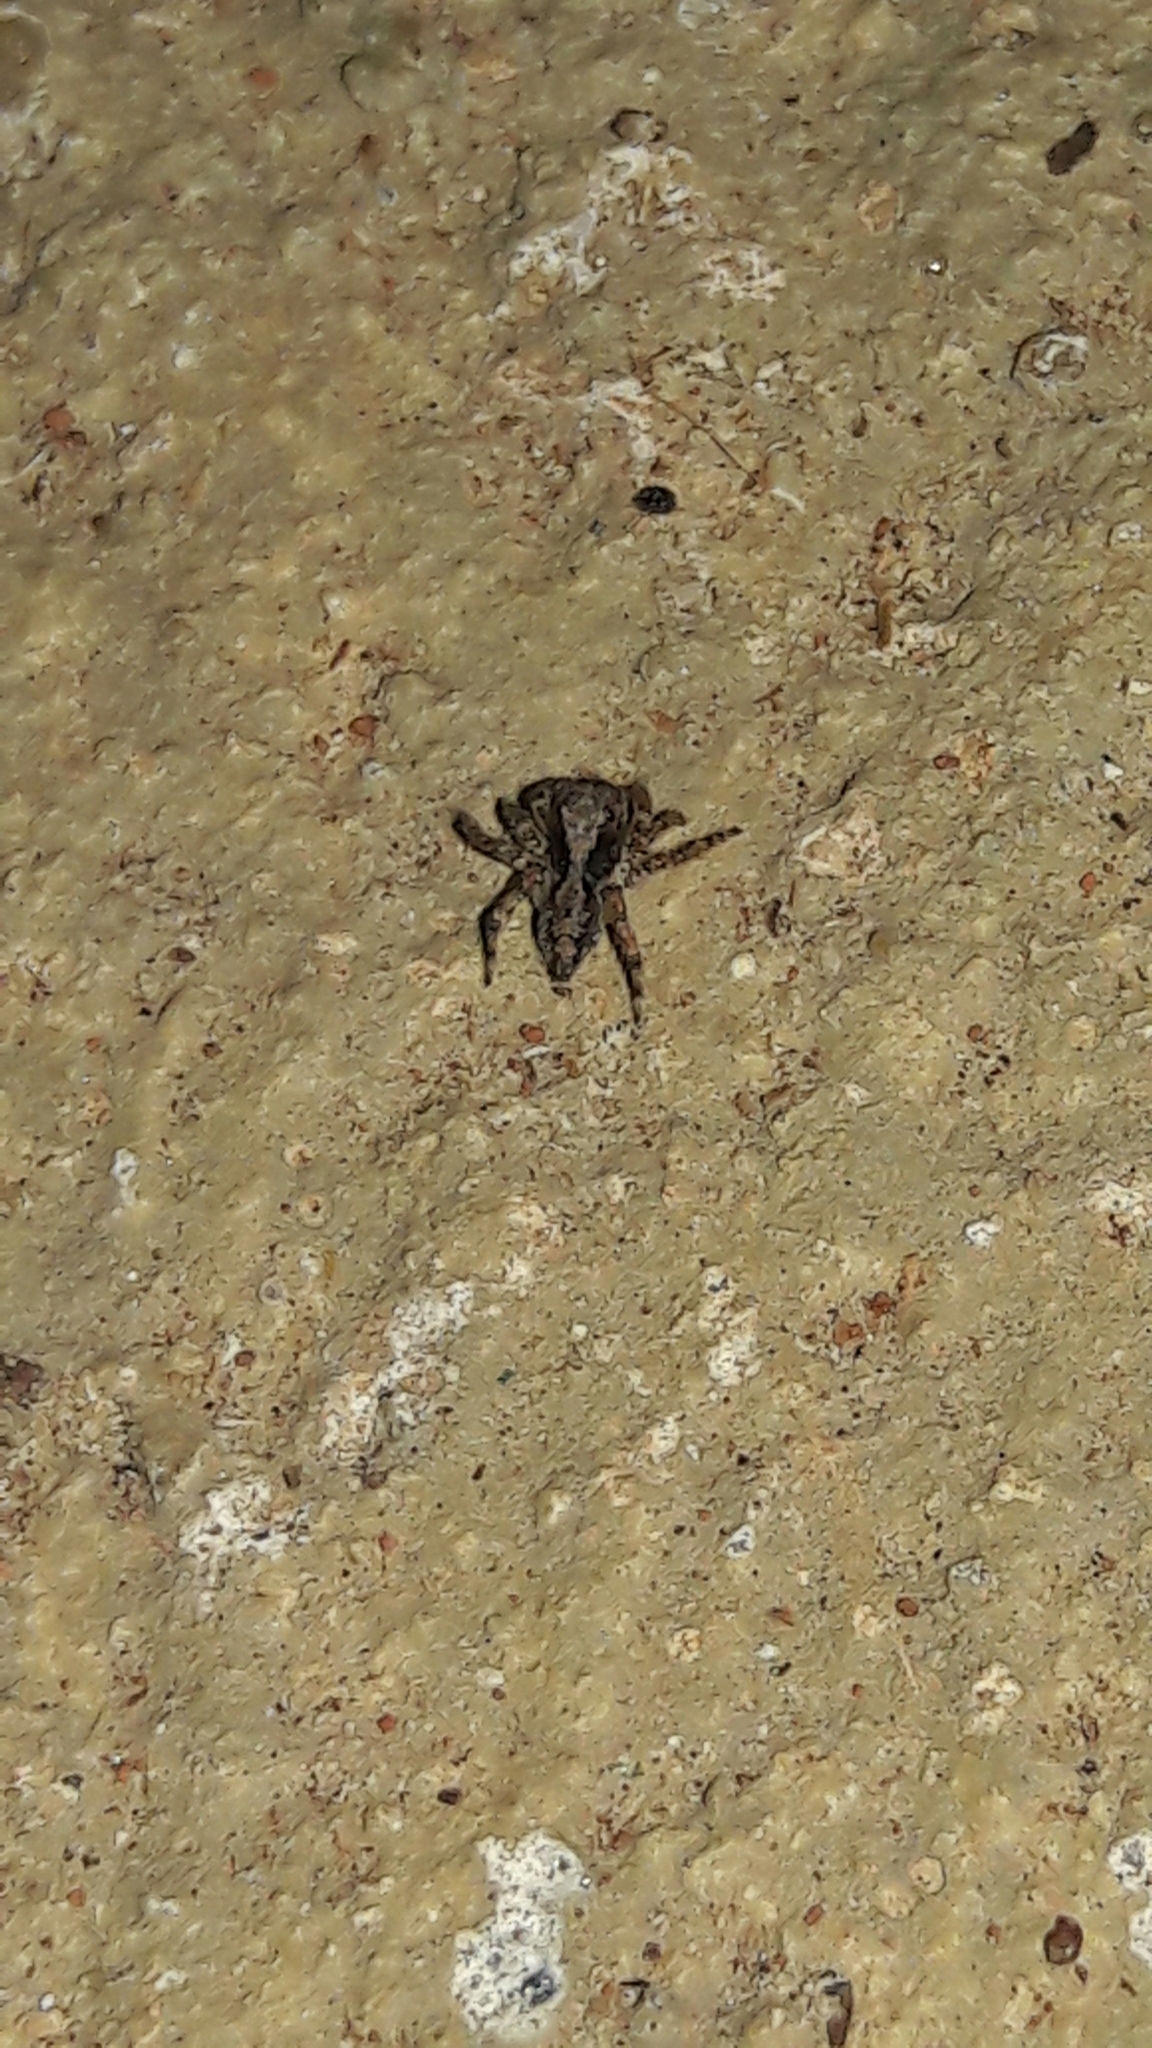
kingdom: Animalia
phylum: Arthropoda
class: Arachnida
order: Araneae
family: Salticidae
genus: Marma
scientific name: Marma nigritarsis
